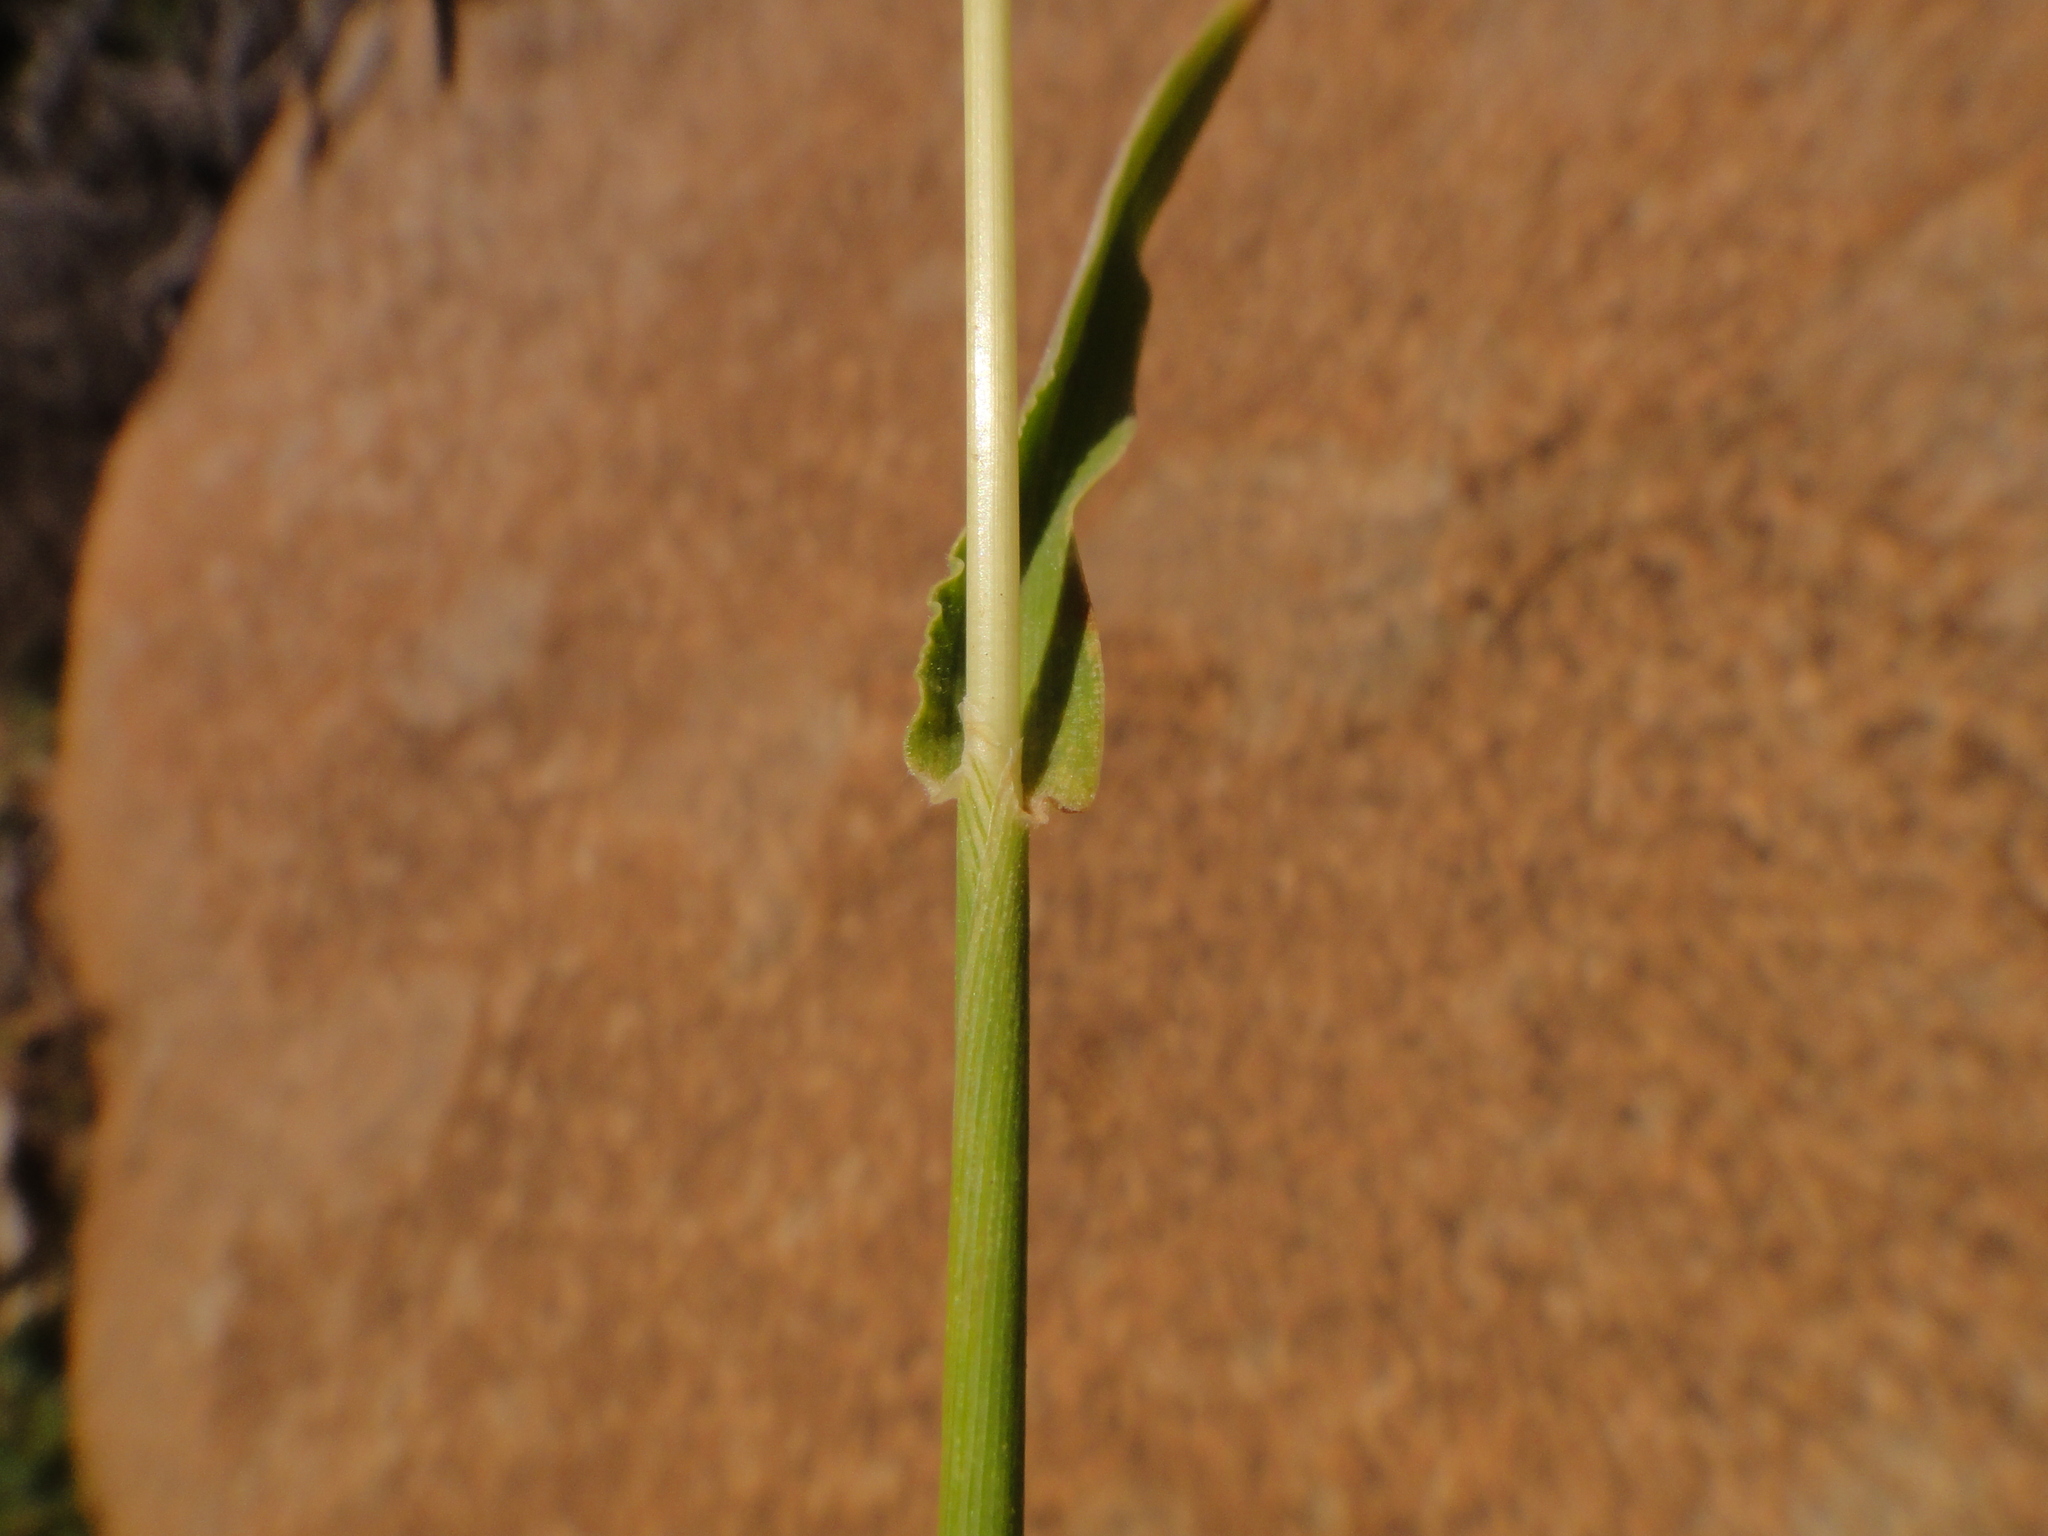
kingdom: Plantae
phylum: Tracheophyta
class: Liliopsida
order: Poales
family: Poaceae
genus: Digitaria
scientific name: Digitaria nodosa
